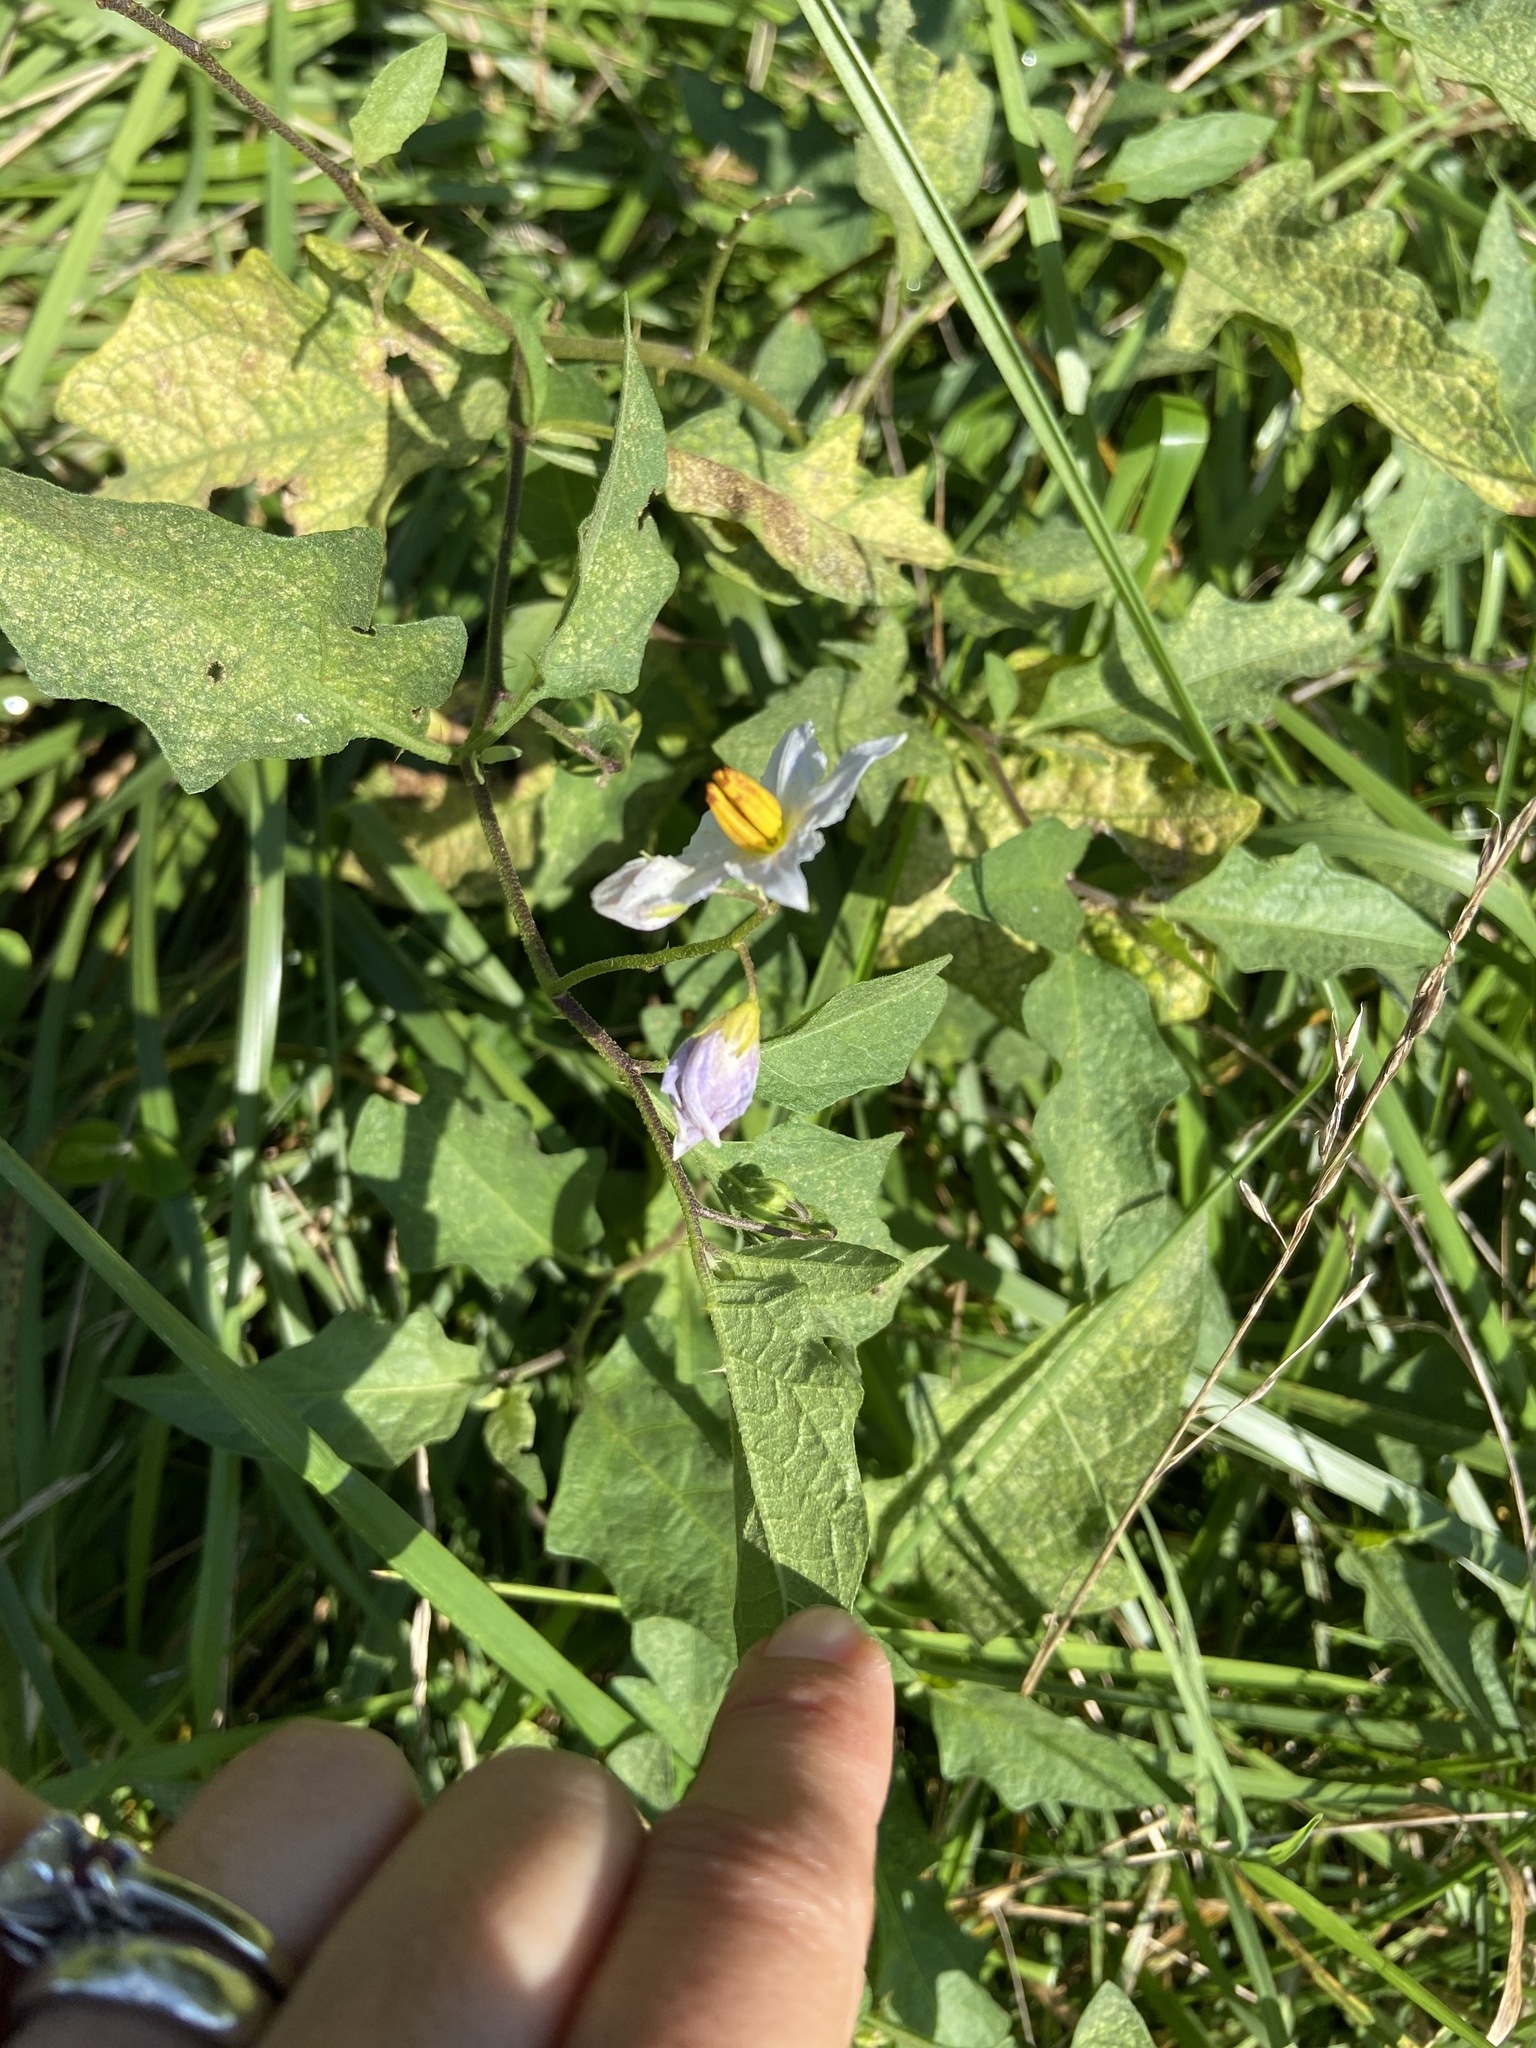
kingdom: Plantae
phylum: Tracheophyta
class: Magnoliopsida
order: Solanales
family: Solanaceae
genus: Solanum
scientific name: Solanum carolinense
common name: Horse-nettle
